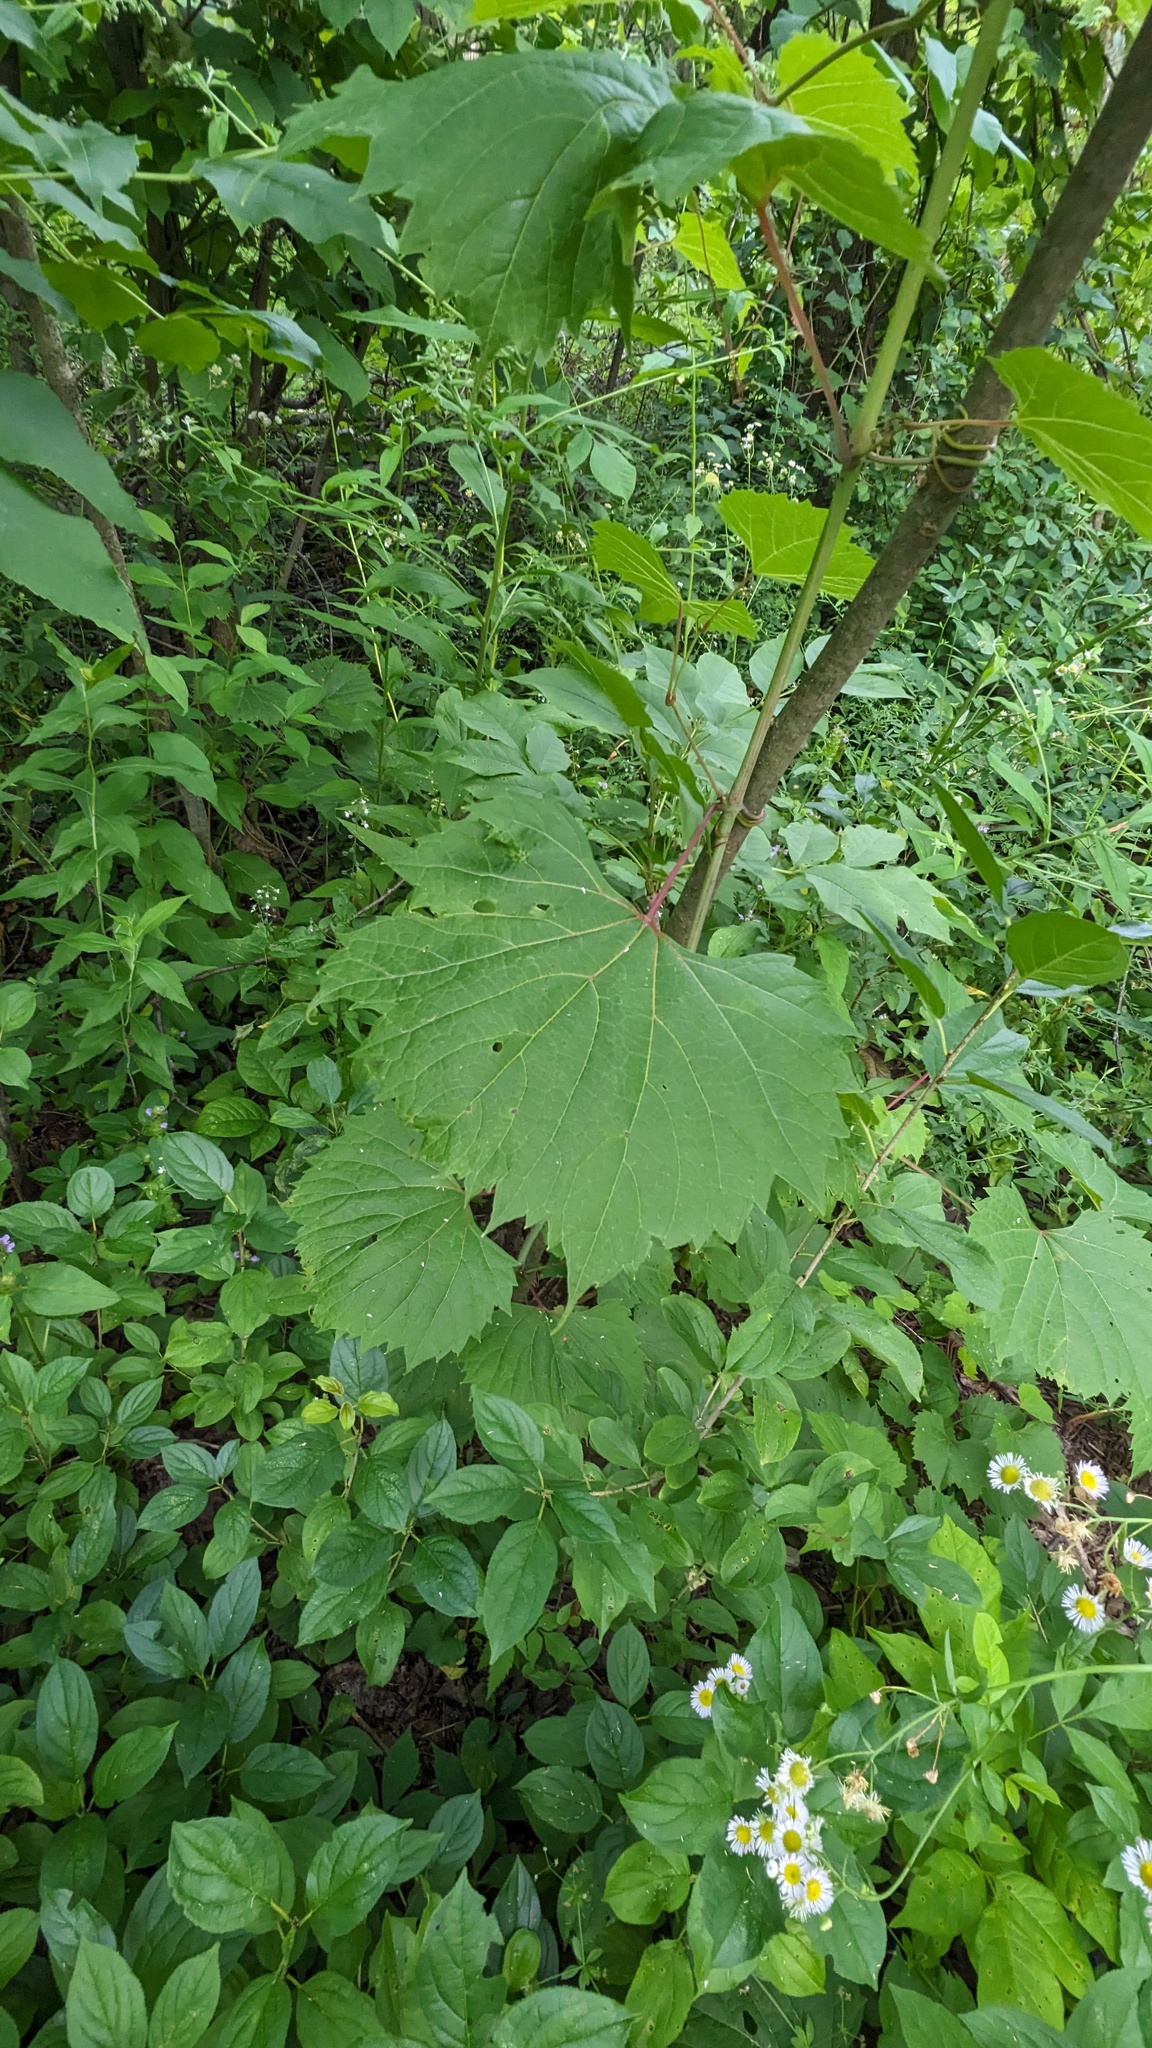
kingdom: Plantae
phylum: Tracheophyta
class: Magnoliopsida
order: Vitales
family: Vitaceae
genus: Vitis
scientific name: Vitis riparia
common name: Frost grape
